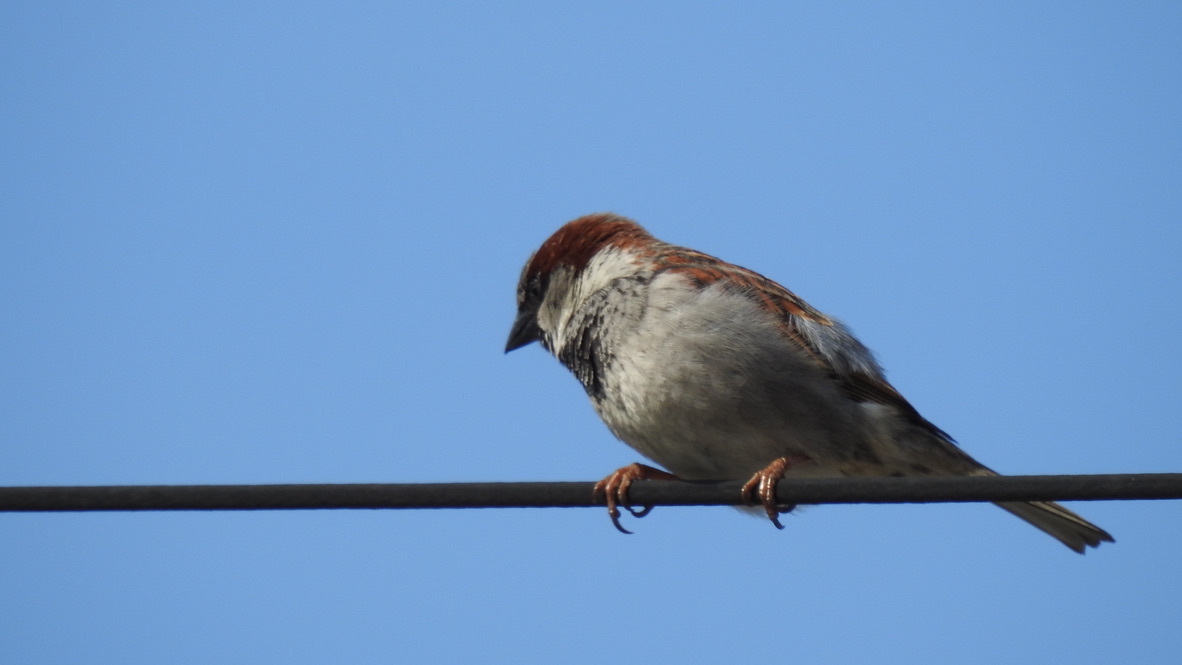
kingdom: Animalia
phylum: Chordata
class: Aves
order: Passeriformes
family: Passeridae
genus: Passer
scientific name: Passer domesticus
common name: House sparrow
